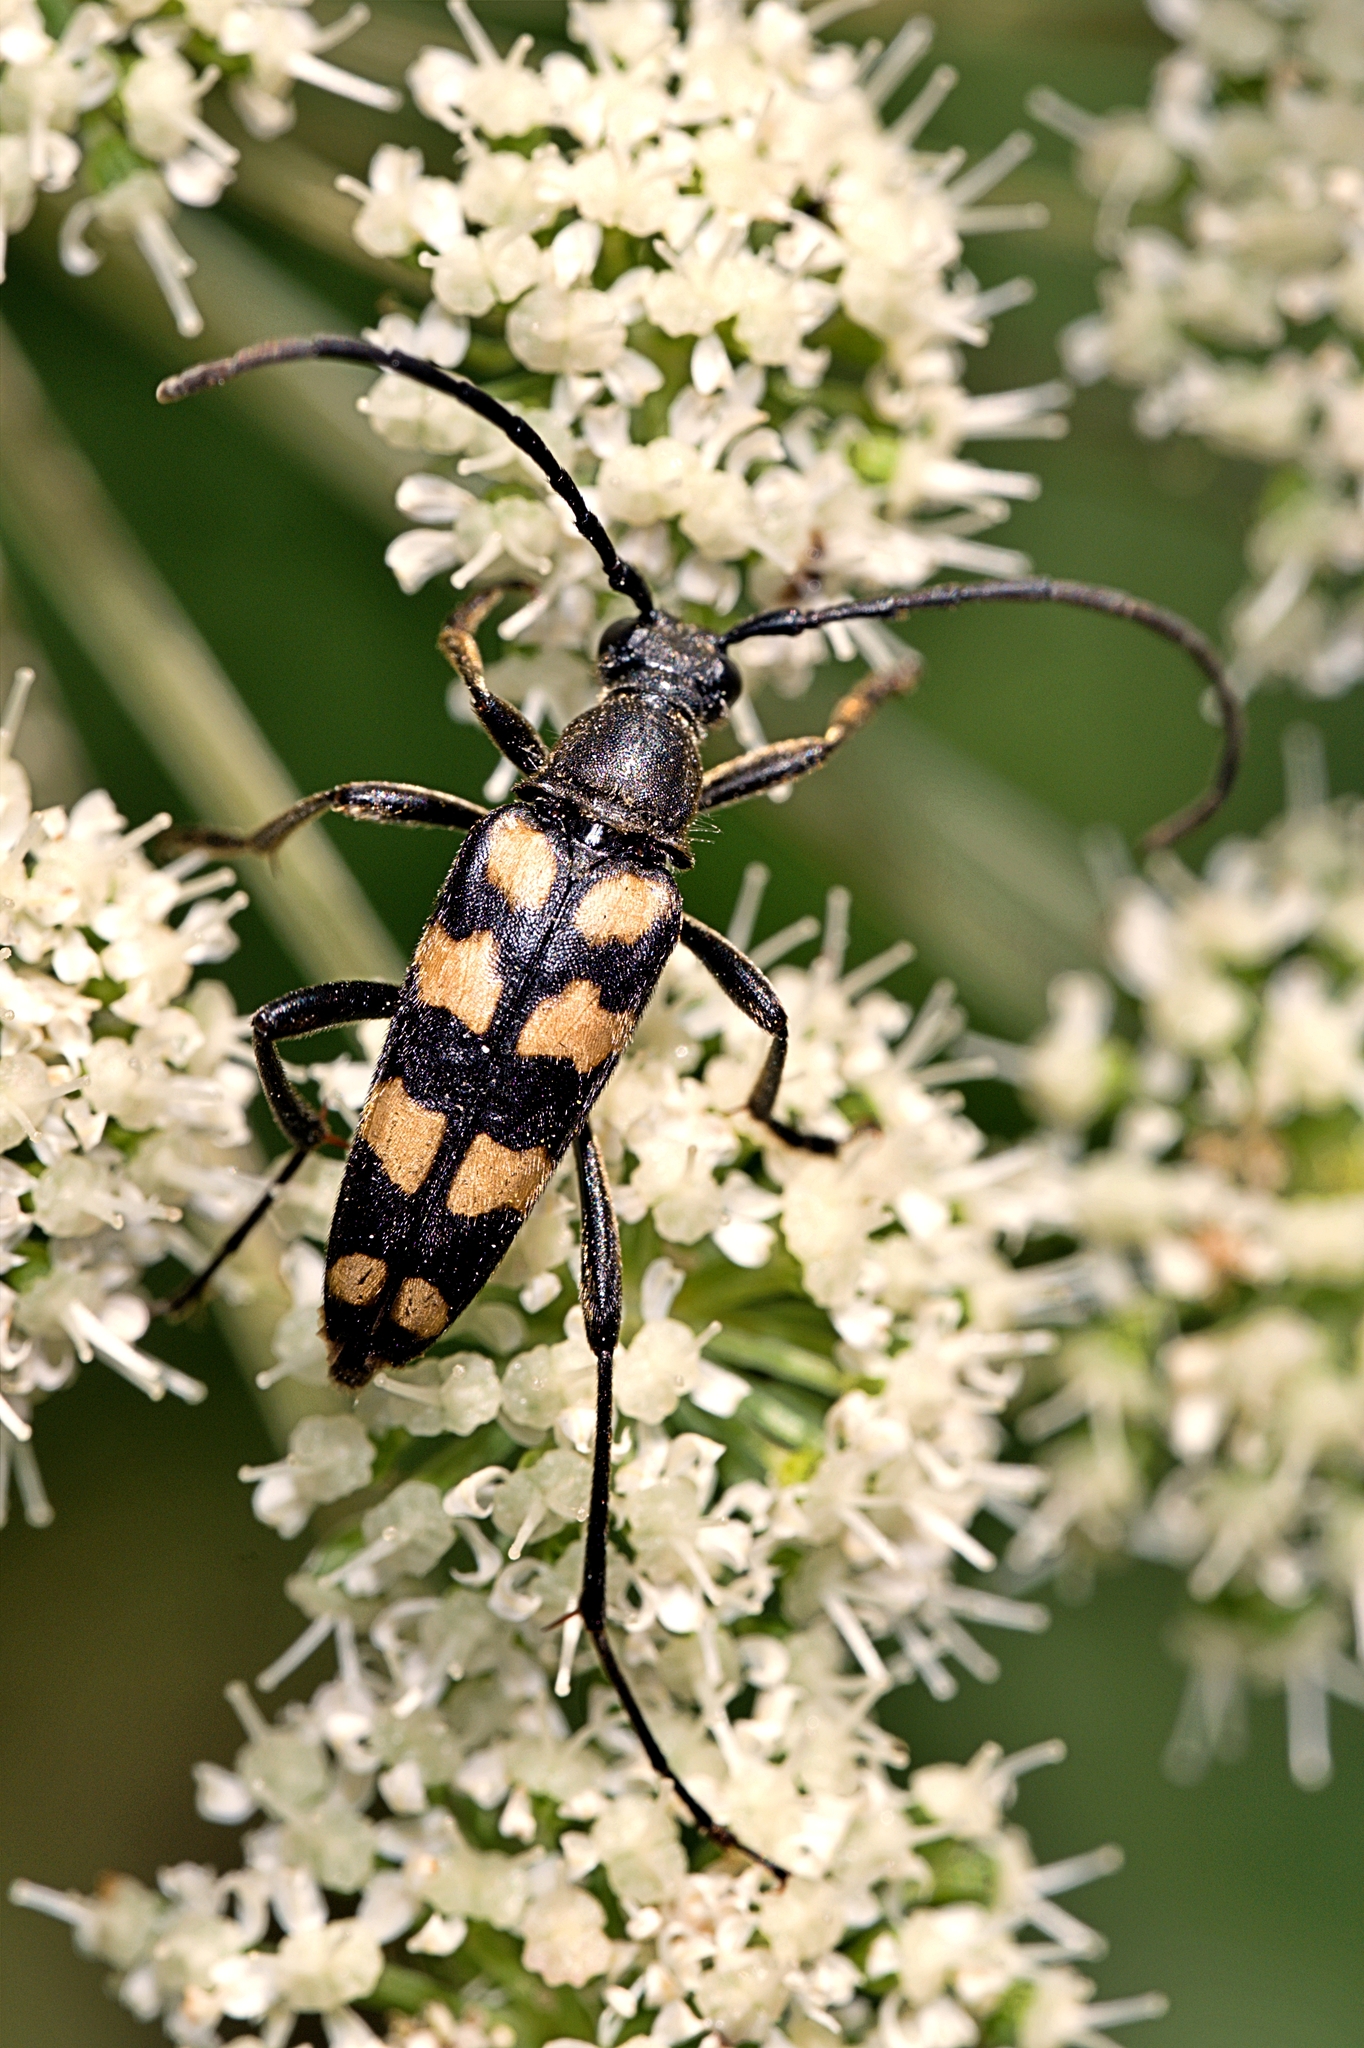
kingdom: Animalia
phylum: Arthropoda
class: Insecta
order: Coleoptera
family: Cerambycidae
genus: Leptura
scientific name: Leptura quadrifasciata
